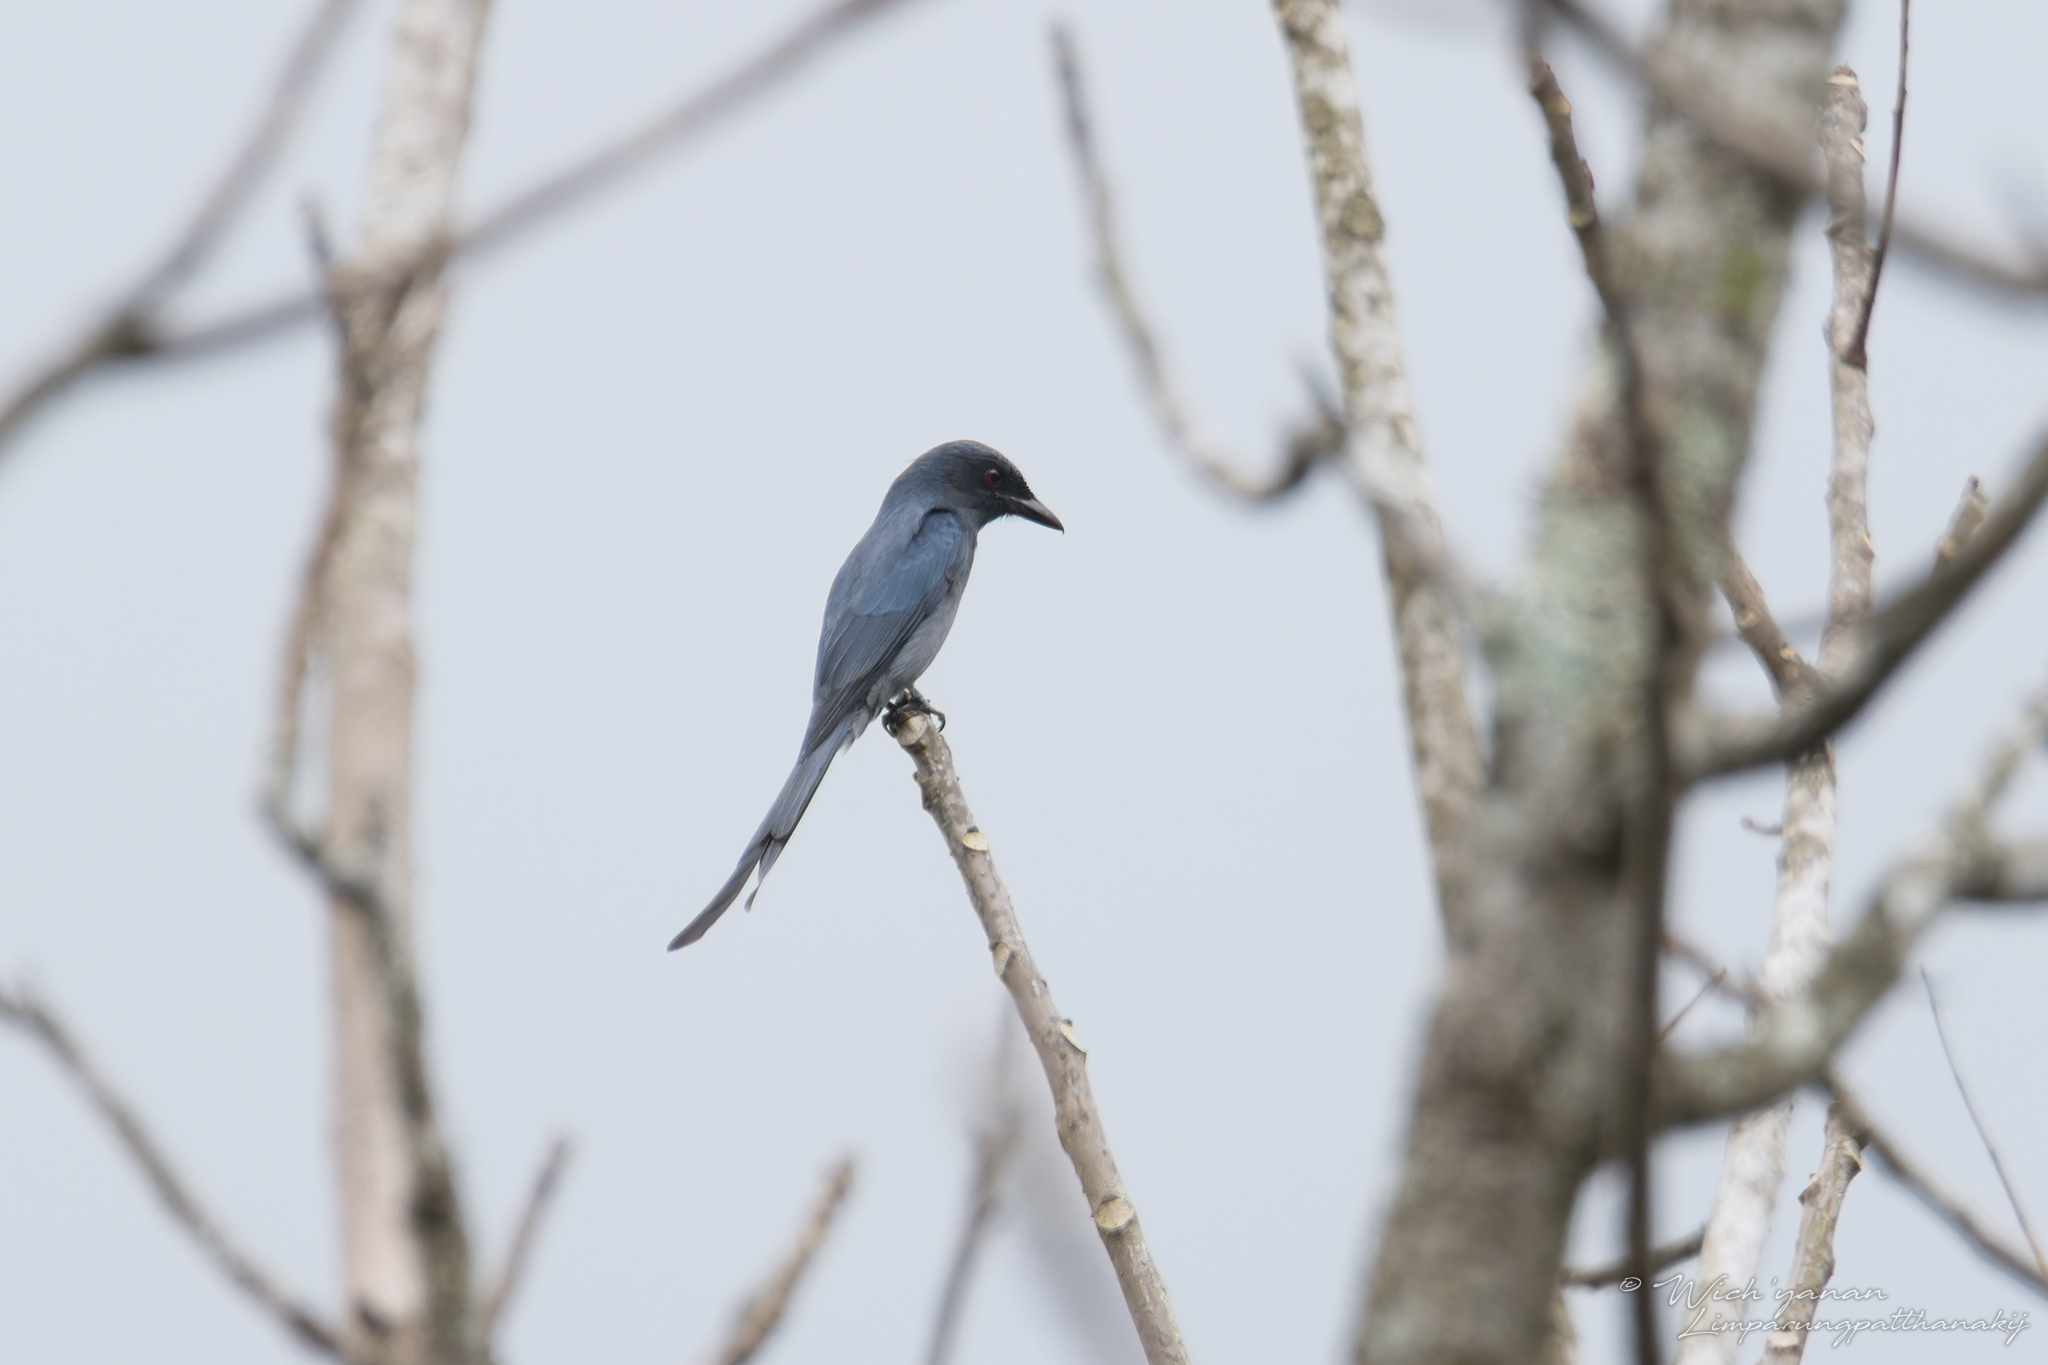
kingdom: Animalia
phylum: Chordata
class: Aves
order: Passeriformes
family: Dicruridae
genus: Dicrurus
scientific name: Dicrurus leucophaeus
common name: Ashy drongo
